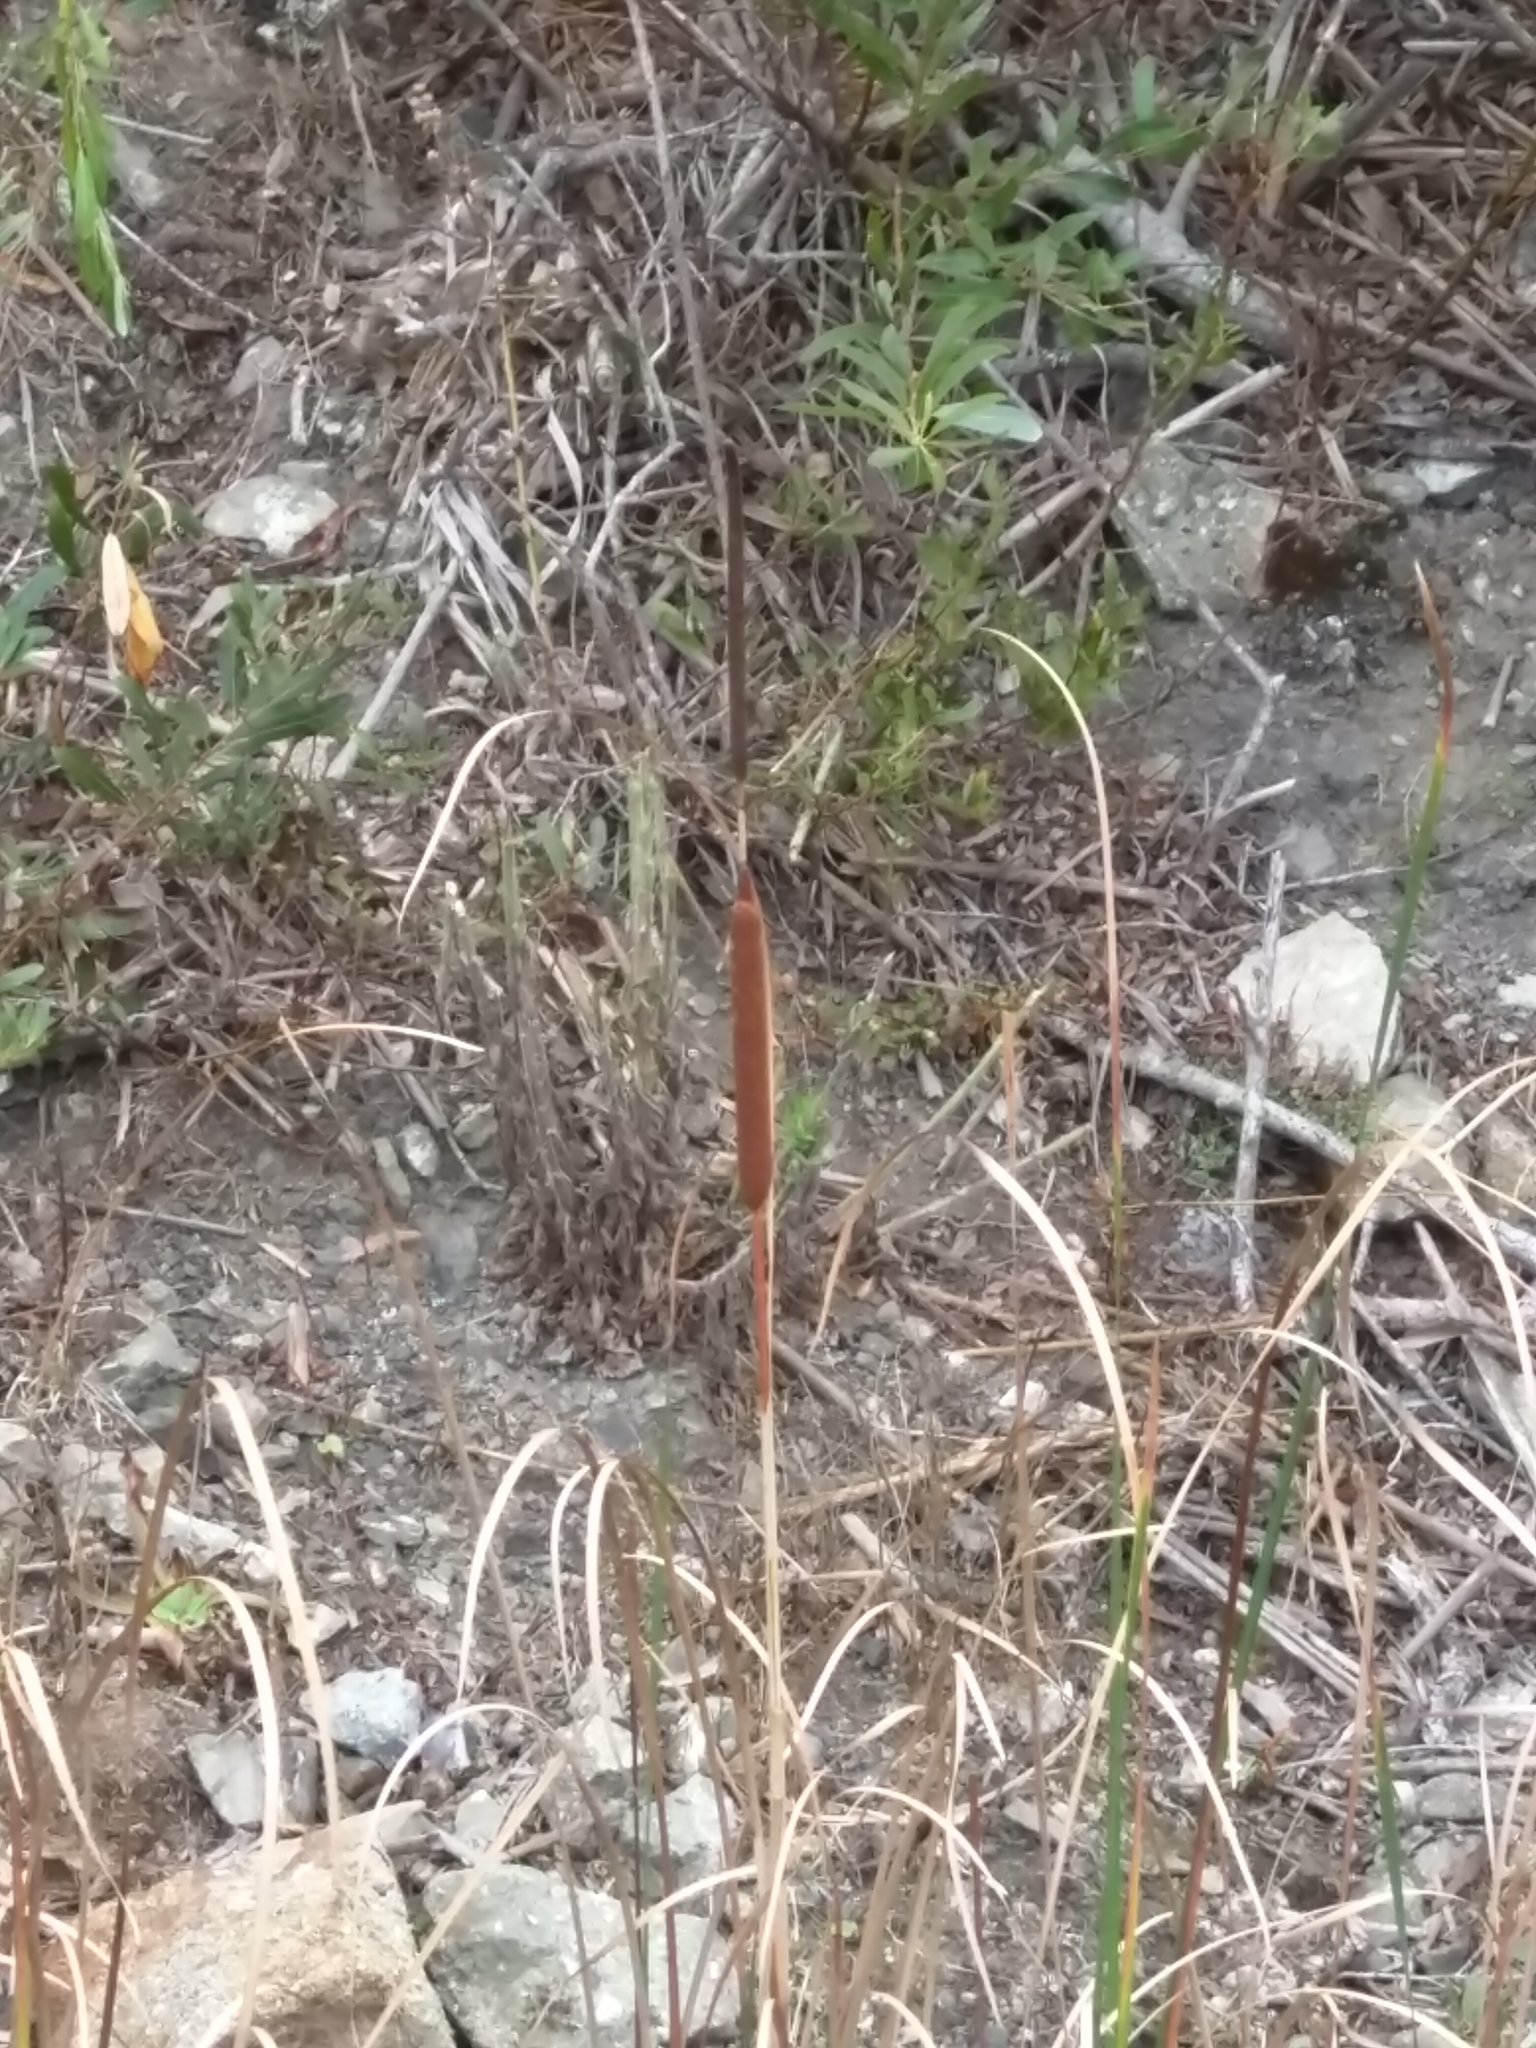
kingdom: Plantae
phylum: Tracheophyta
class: Liliopsida
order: Poales
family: Typhaceae
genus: Typha
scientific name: Typha angustifolia
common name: Lesser bulrush
